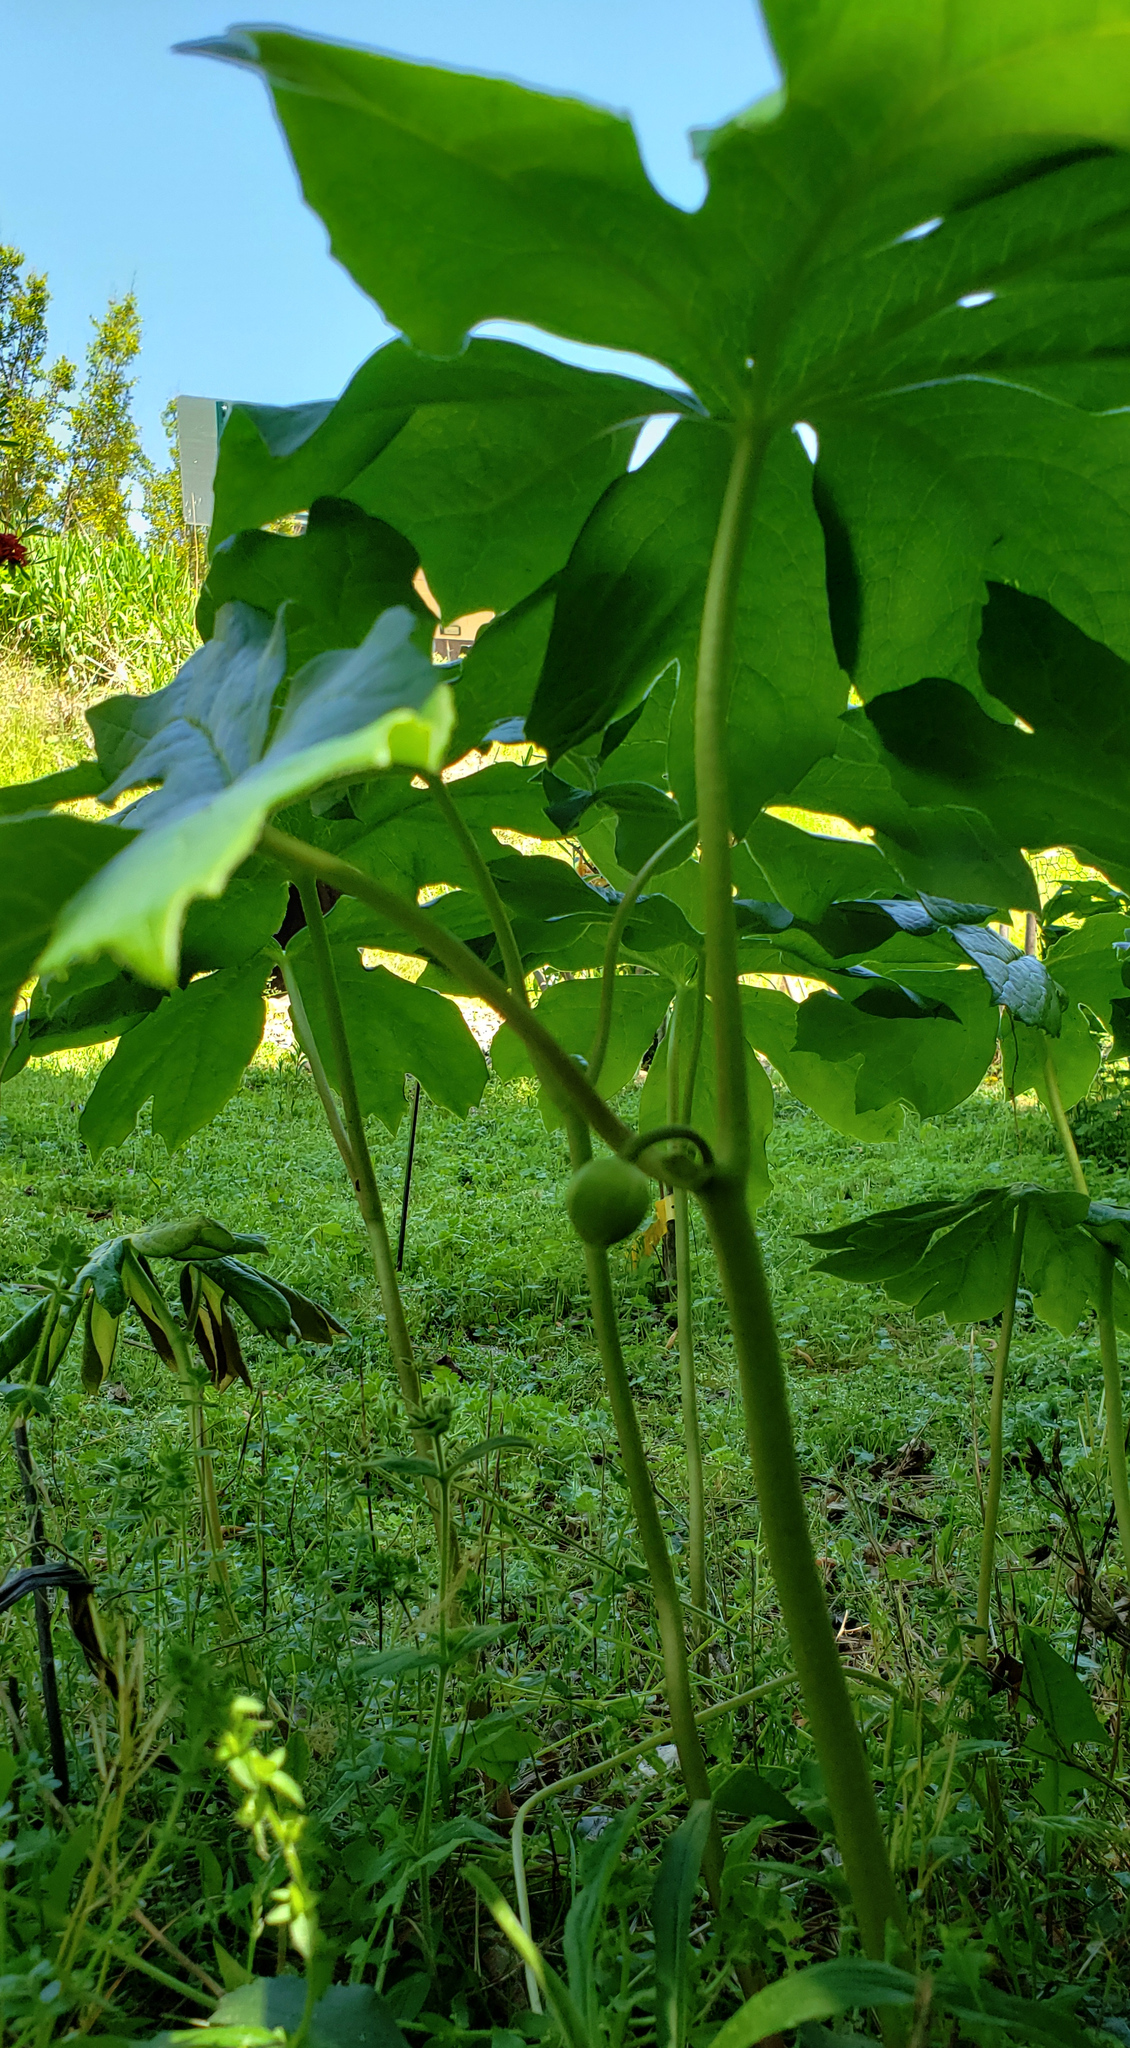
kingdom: Plantae
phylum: Tracheophyta
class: Magnoliopsida
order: Ranunculales
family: Berberidaceae
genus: Podophyllum
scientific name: Podophyllum peltatum
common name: Wild mandrake
